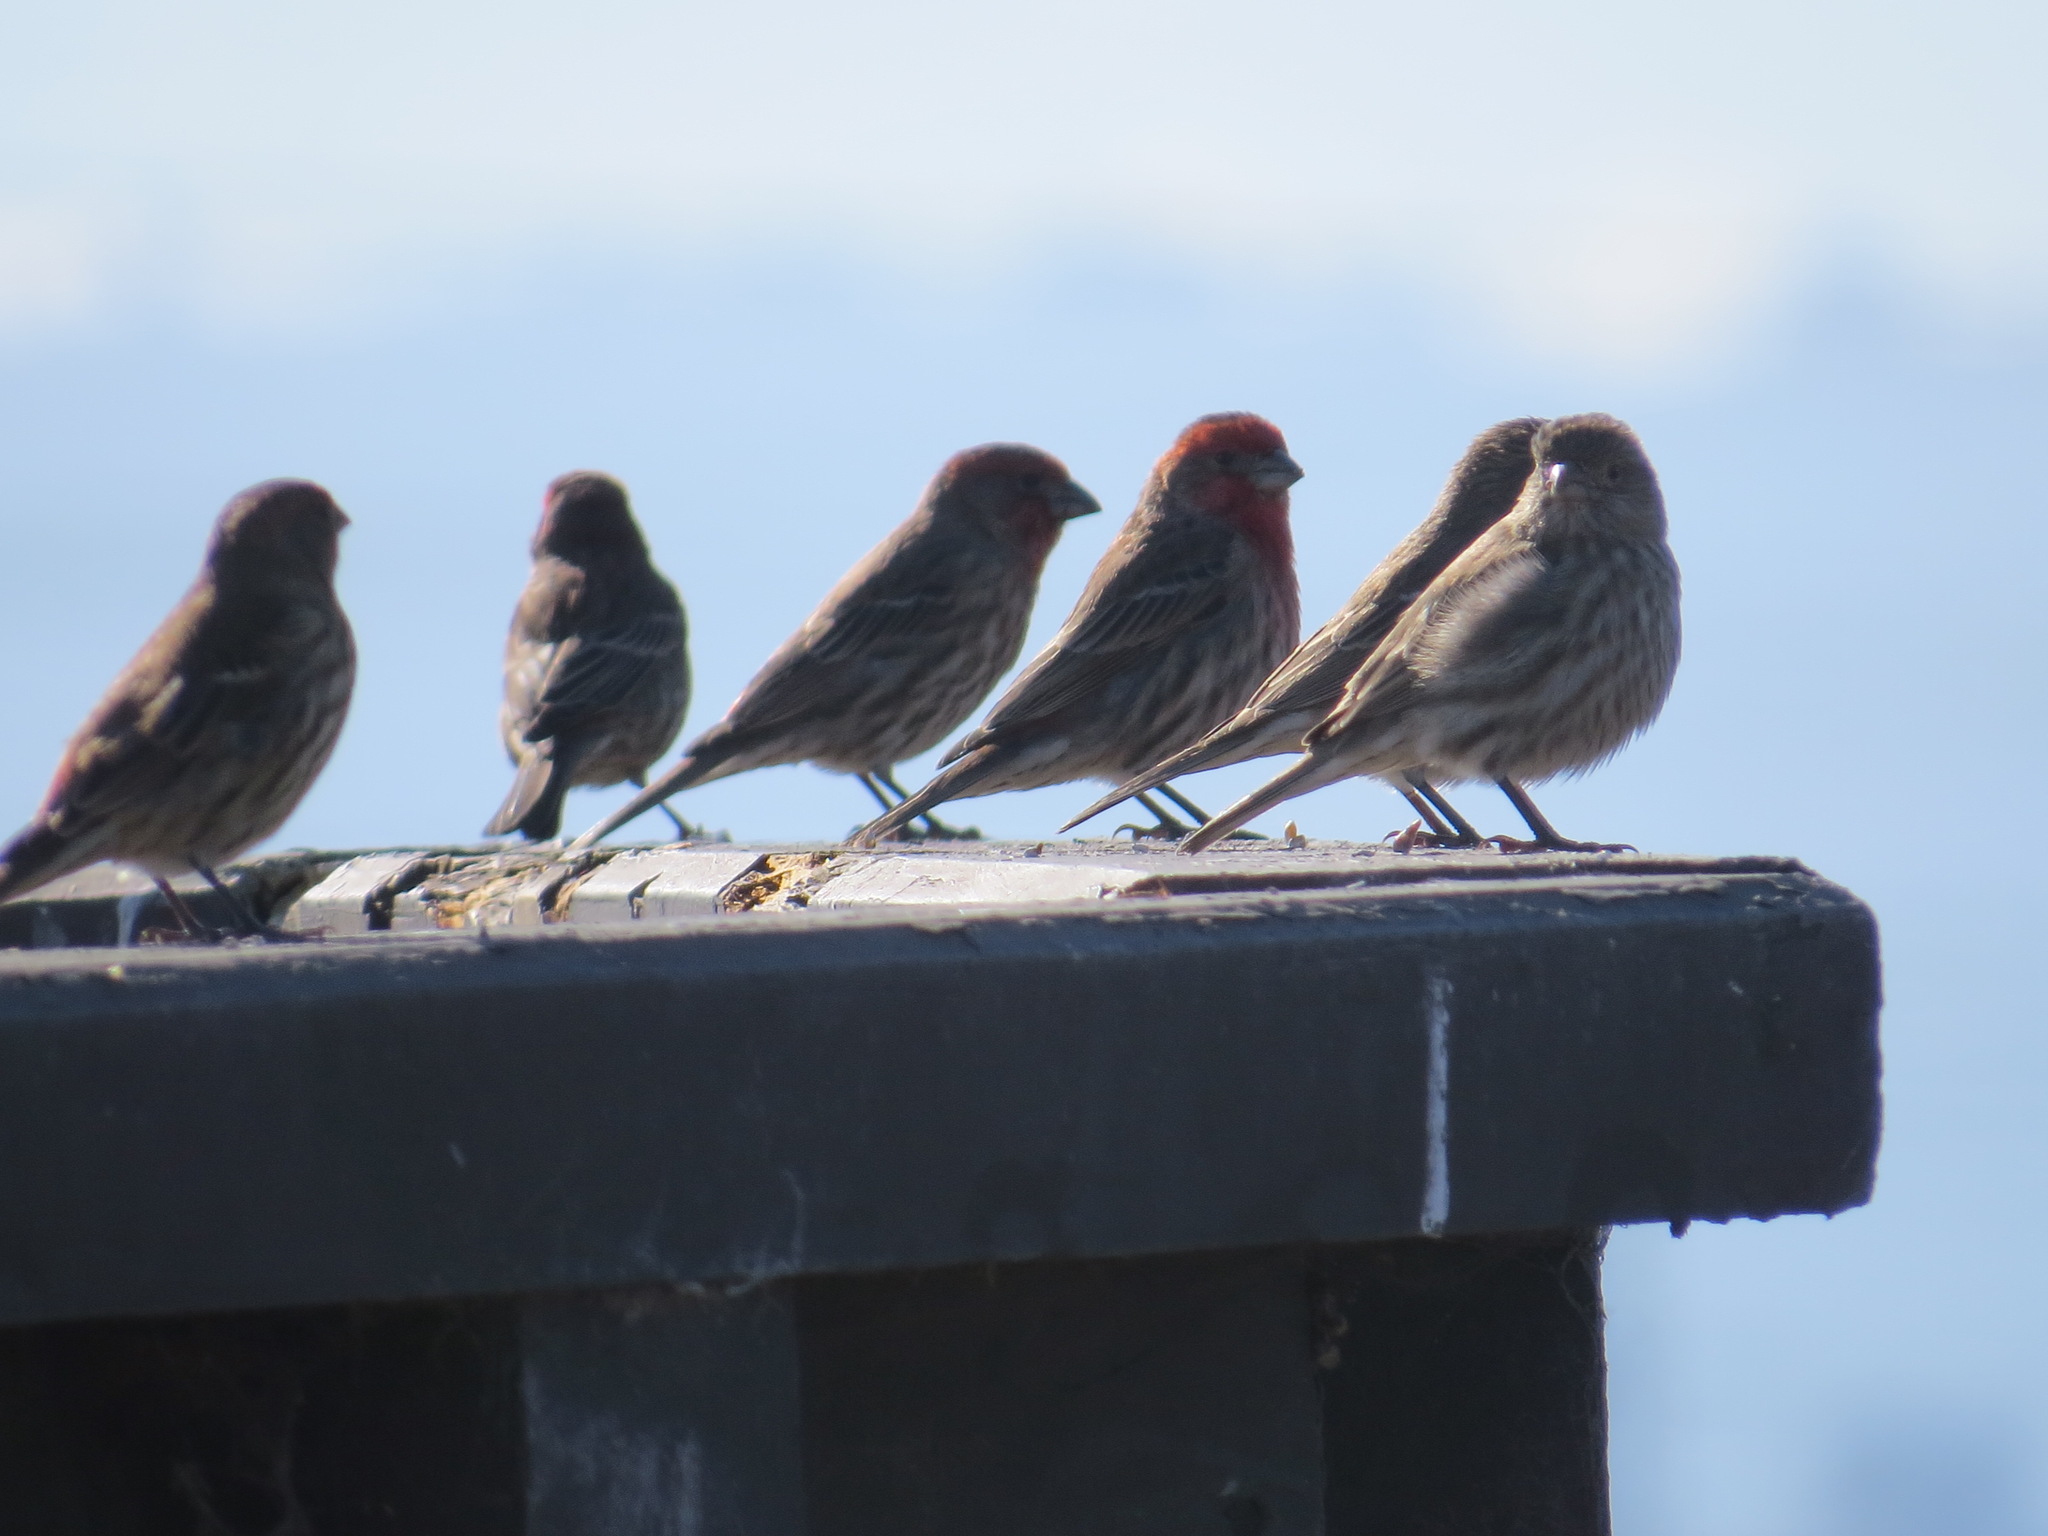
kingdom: Animalia
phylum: Chordata
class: Aves
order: Passeriformes
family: Fringillidae
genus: Haemorhous
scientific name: Haemorhous mexicanus
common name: House finch
